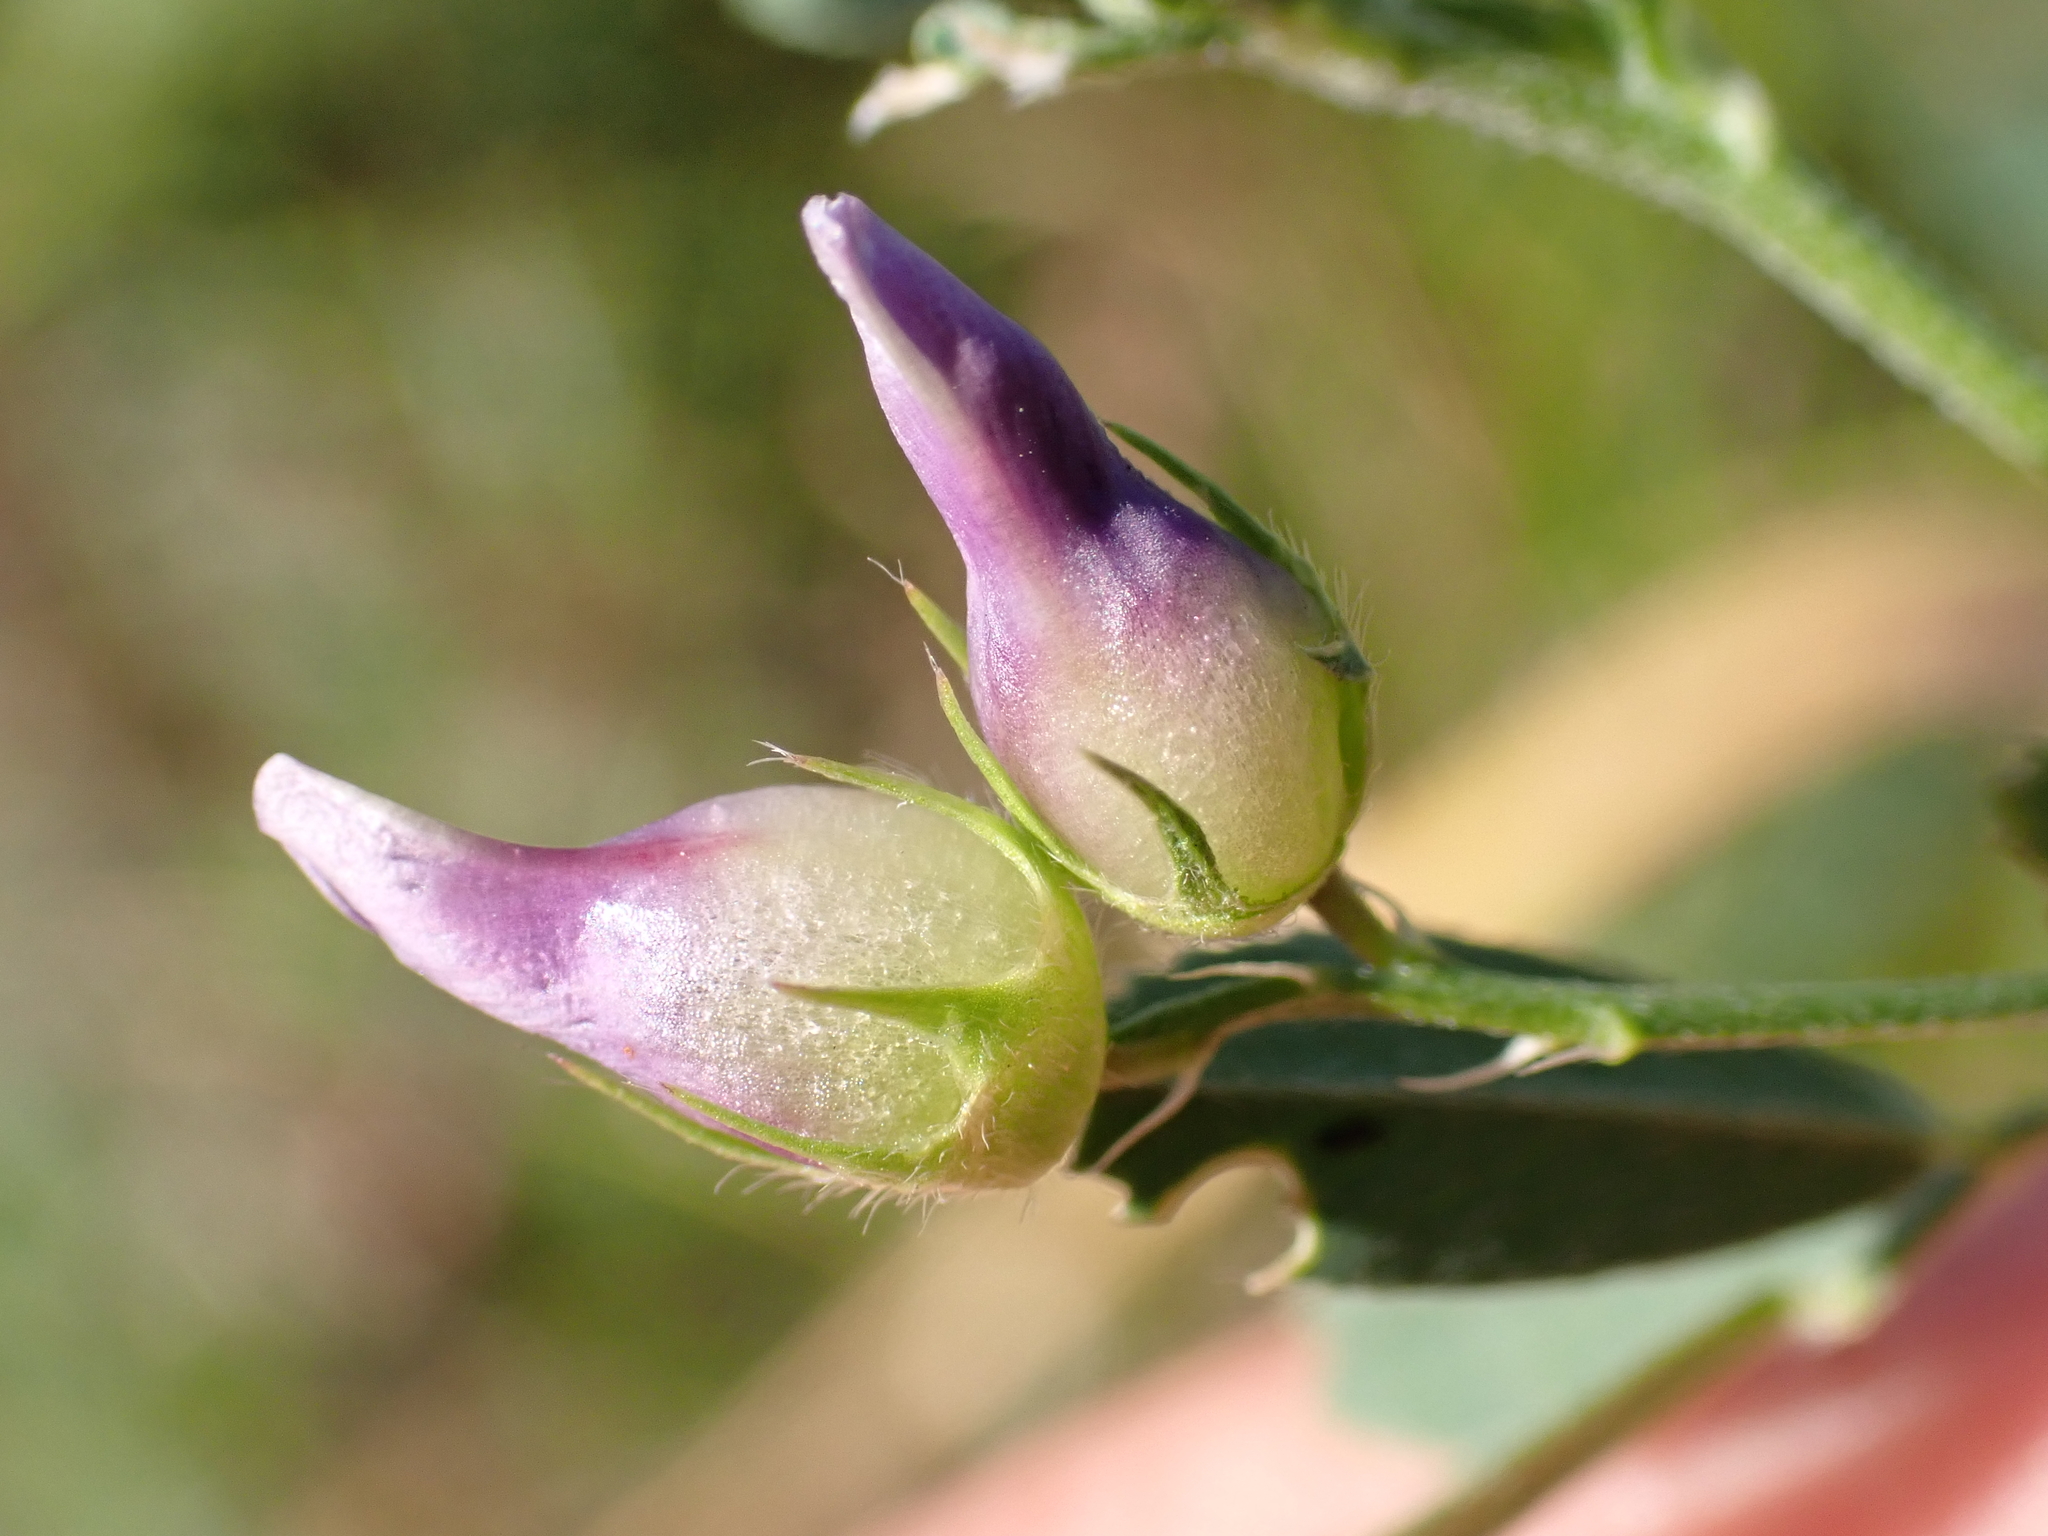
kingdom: Animalia
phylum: Arthropoda
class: Insecta
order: Diptera
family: Cecidomyiidae
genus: Contarinia
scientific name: Contarinia medicaginis
